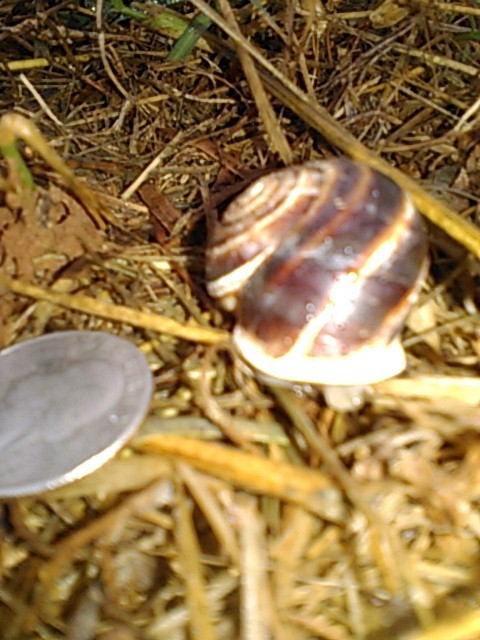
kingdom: Animalia
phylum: Mollusca
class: Gastropoda
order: Stylommatophora
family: Helicidae
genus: Otala
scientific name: Otala lactea
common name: Milk snail
